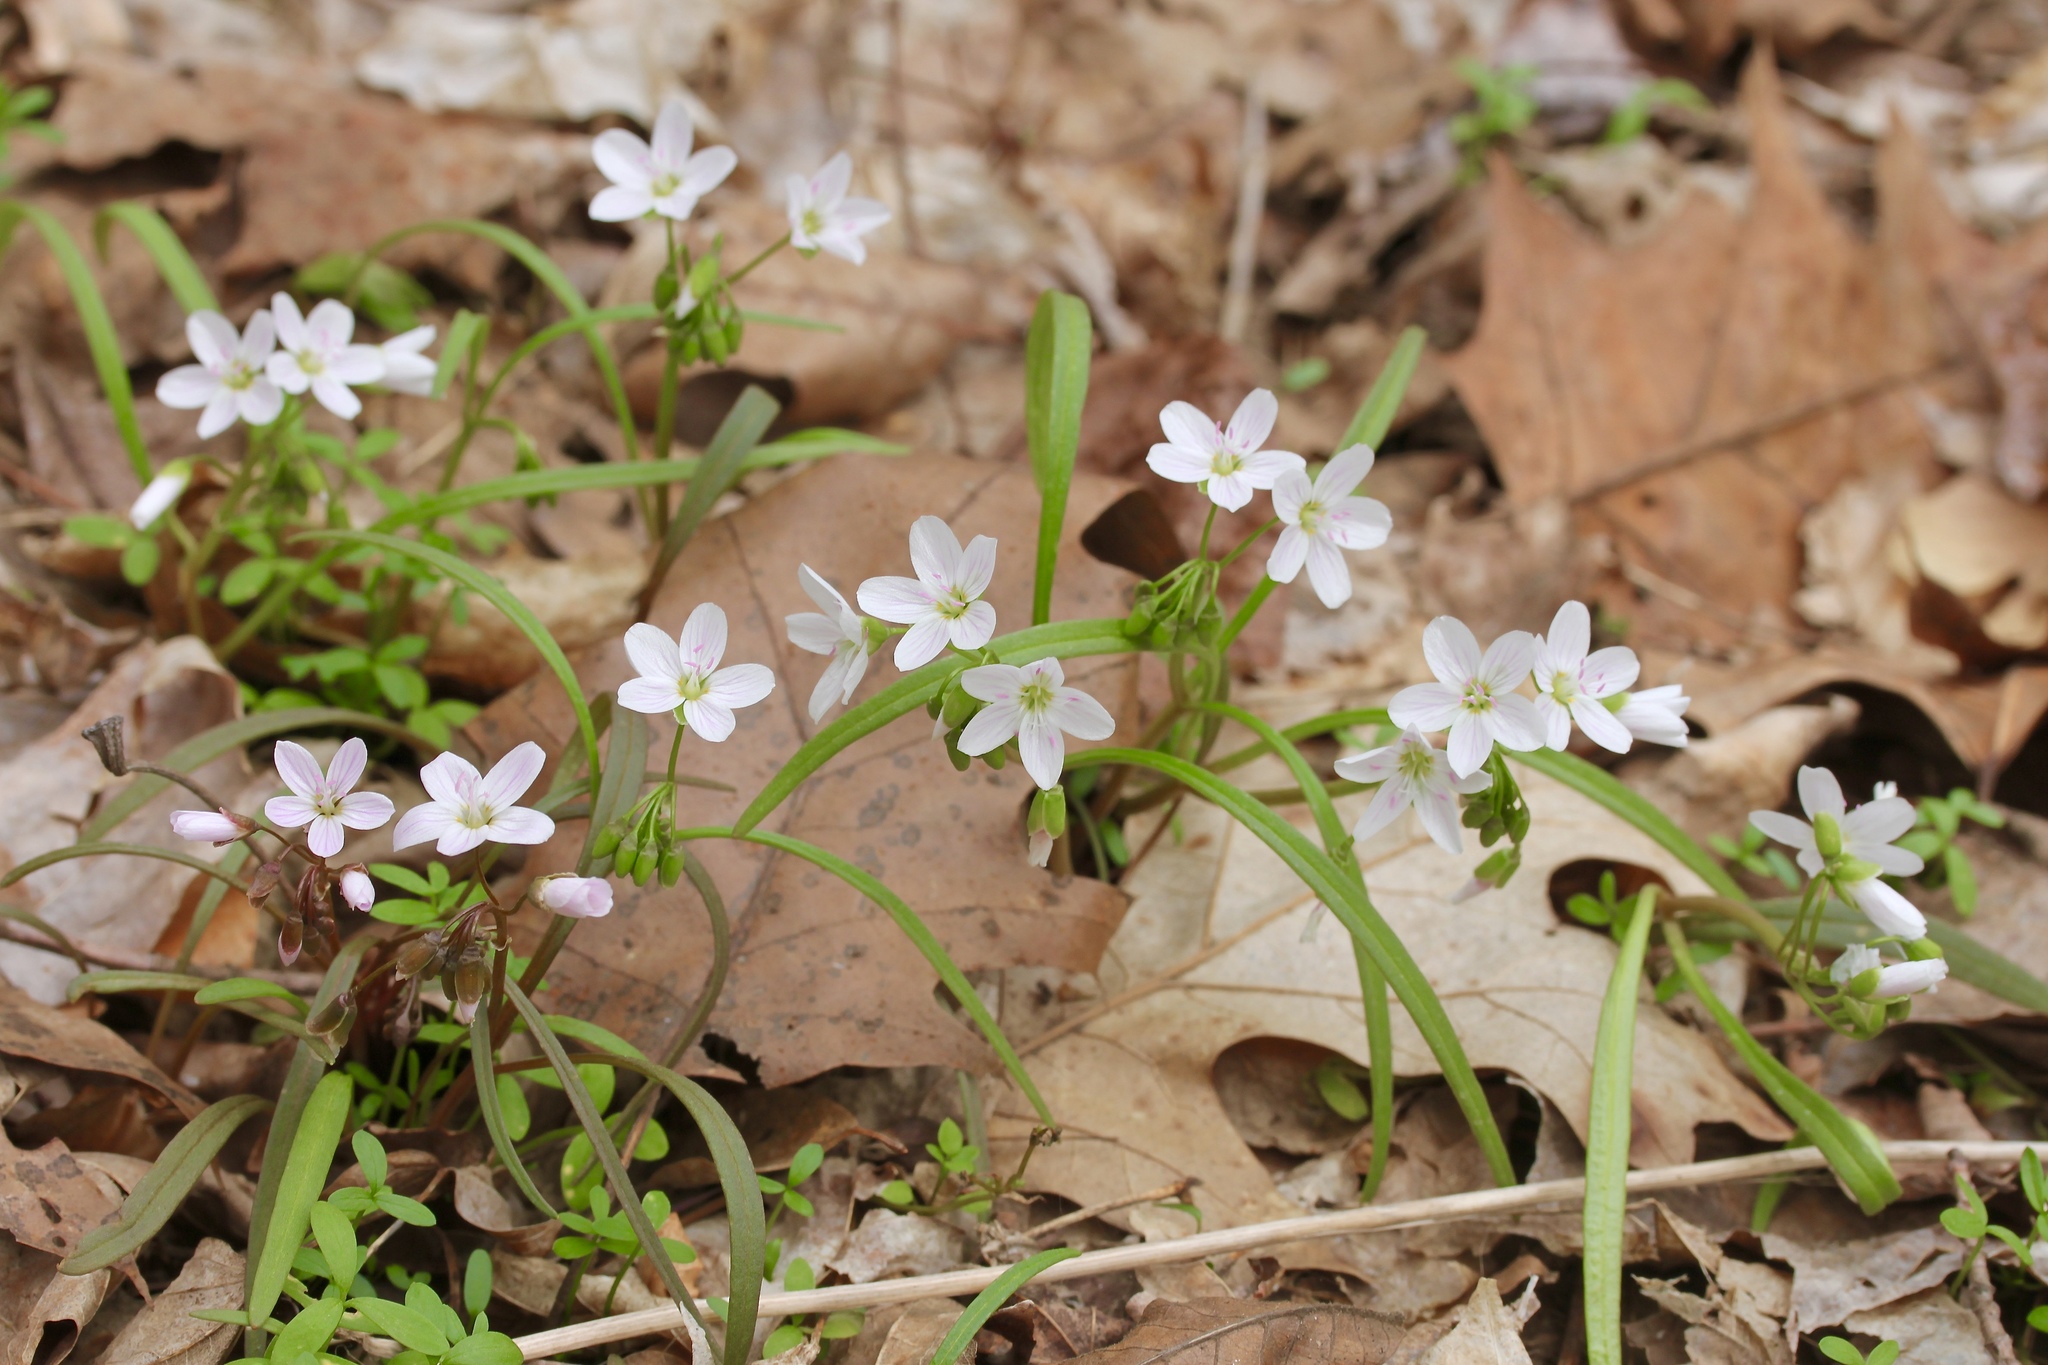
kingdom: Plantae
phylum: Tracheophyta
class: Magnoliopsida
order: Caryophyllales
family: Montiaceae
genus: Claytonia
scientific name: Claytonia virginica
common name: Virginia springbeauty
